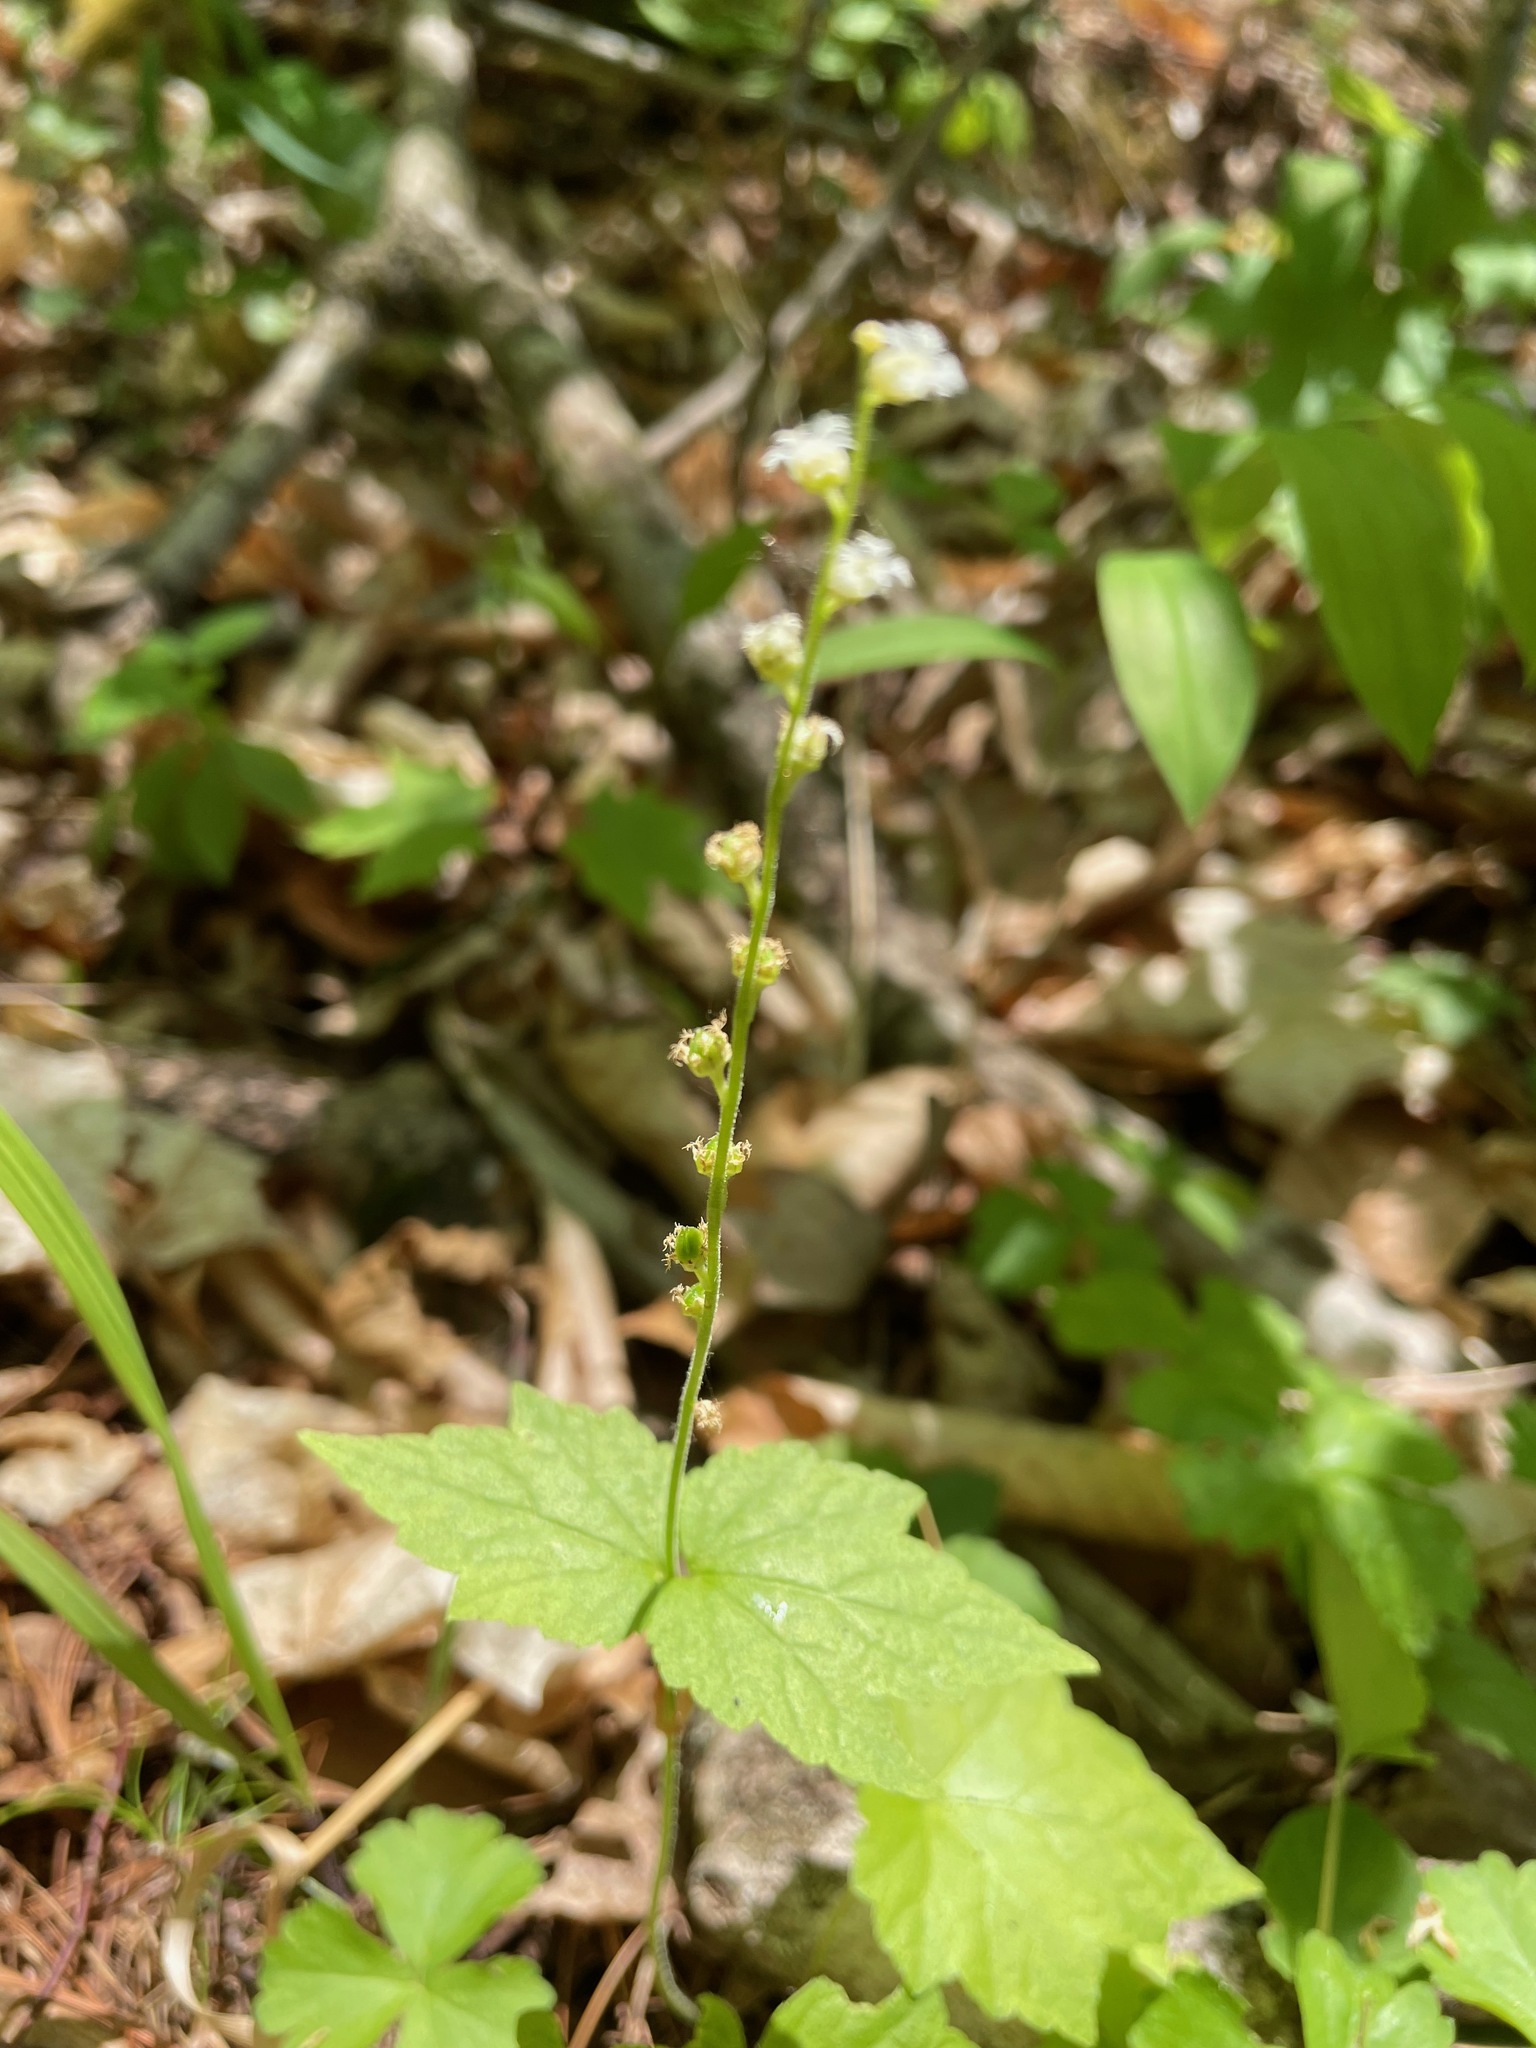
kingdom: Plantae
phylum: Tracheophyta
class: Magnoliopsida
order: Saxifragales
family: Saxifragaceae
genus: Mitella
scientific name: Mitella diphylla
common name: Coolwort
